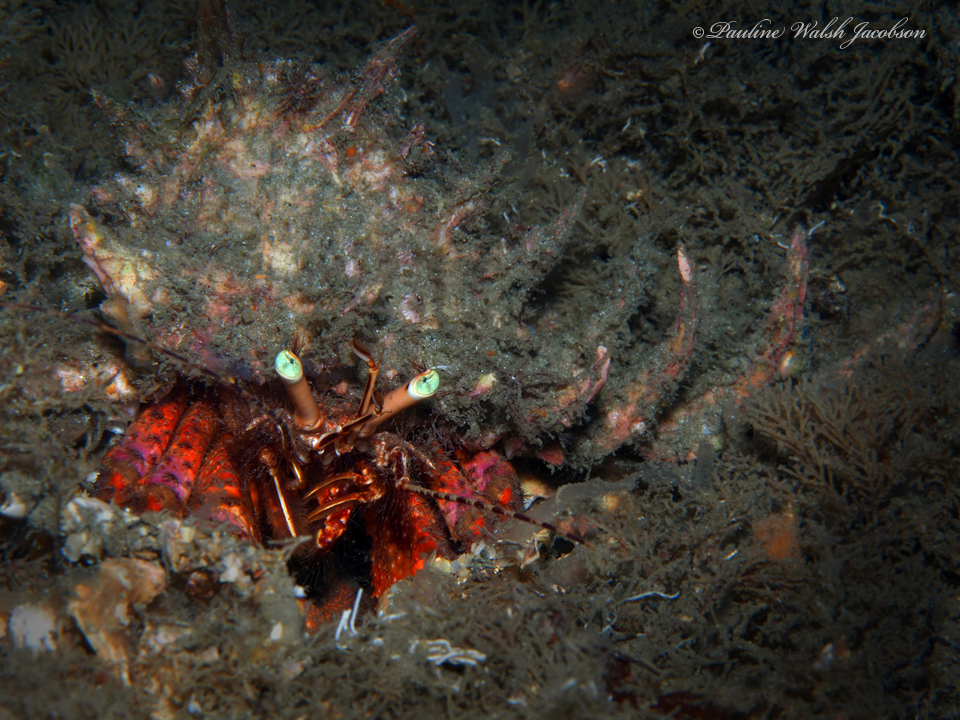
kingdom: Animalia
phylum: Arthropoda
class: Malacostraca
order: Decapoda
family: Diogenidae
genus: Petrochirus
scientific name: Petrochirus diogenes
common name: Giant hermit crab
